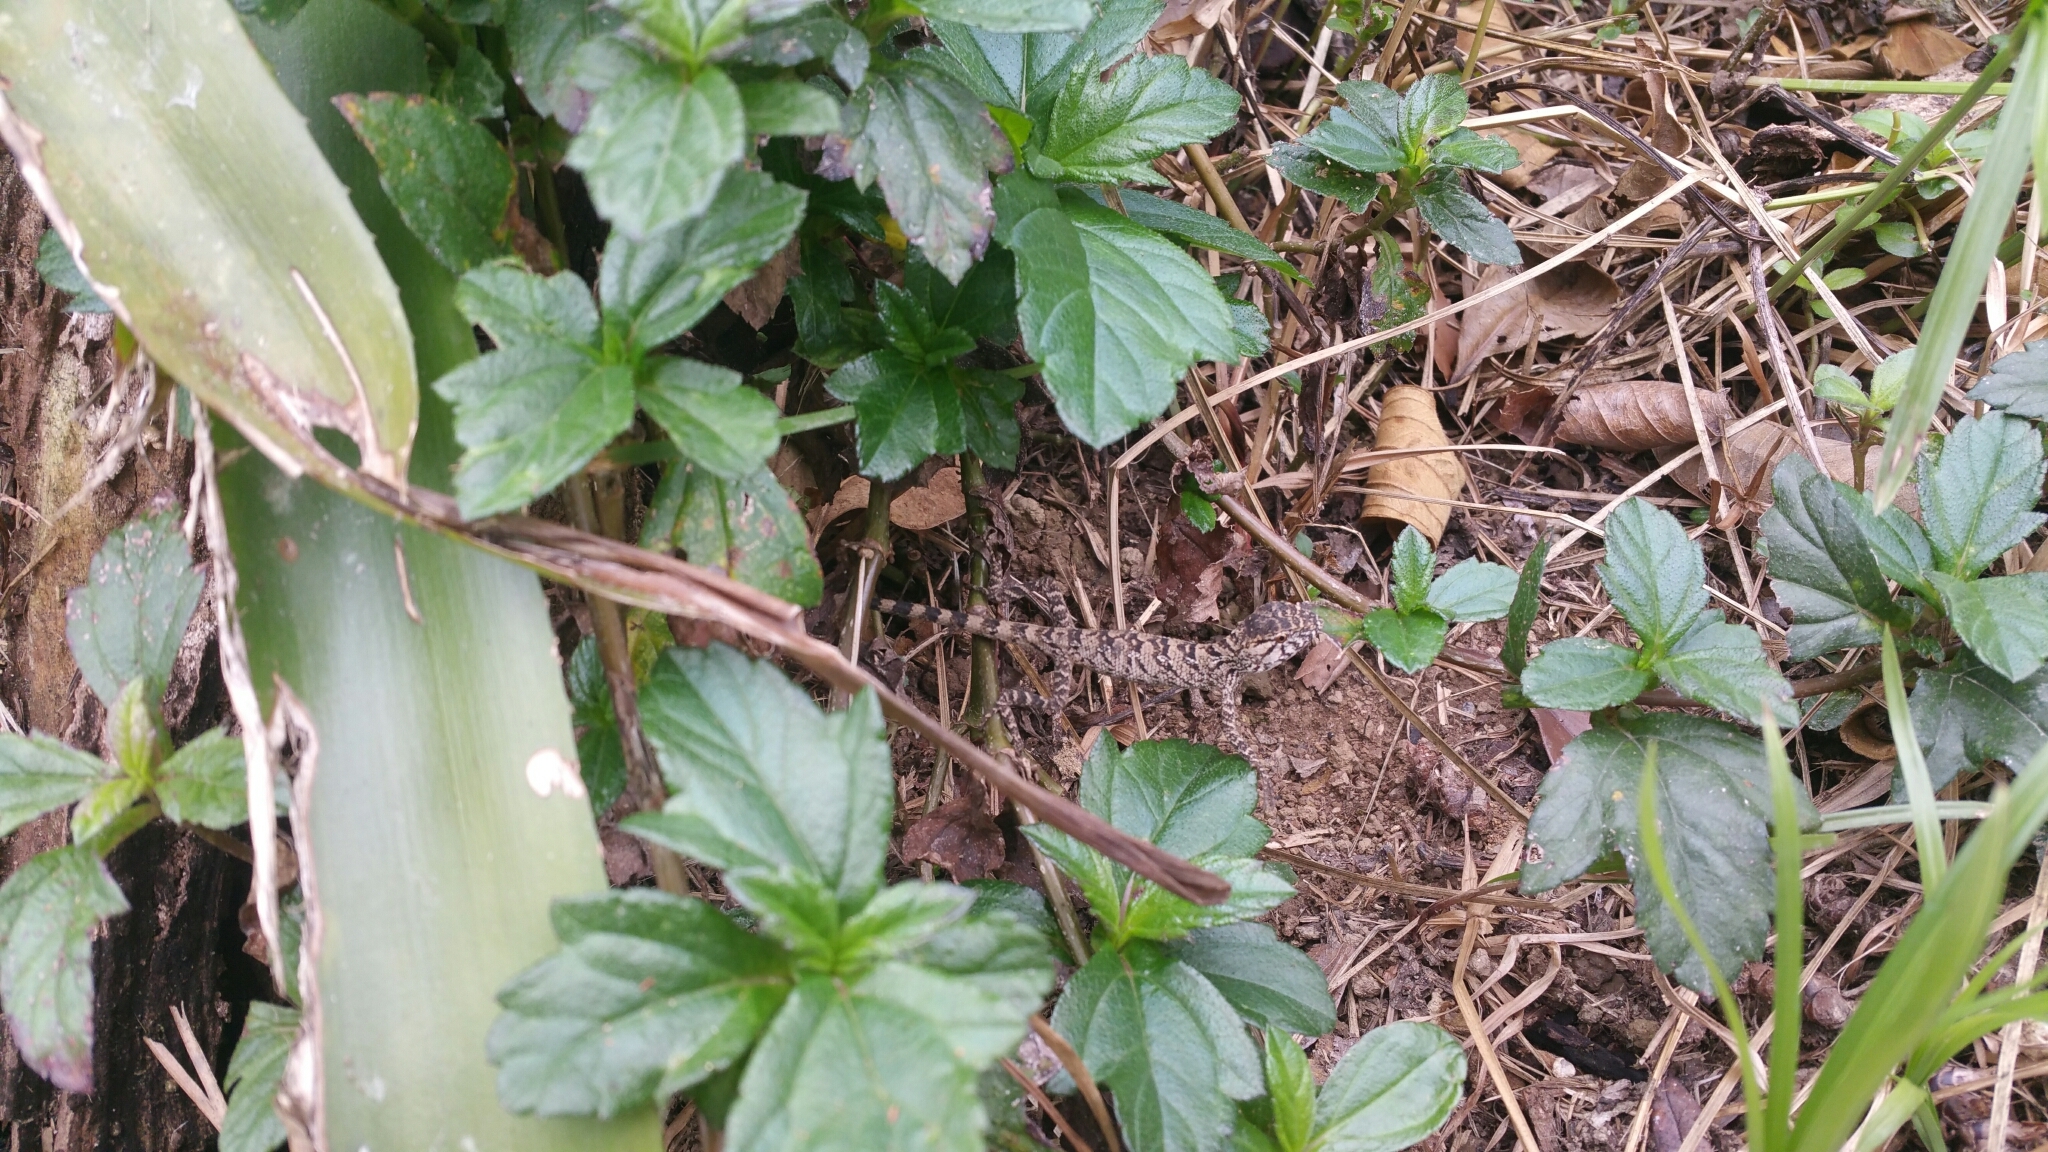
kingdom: Animalia
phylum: Chordata
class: Squamata
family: Agamidae
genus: Calotes
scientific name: Calotes versicolor
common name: Oriental garden lizard
